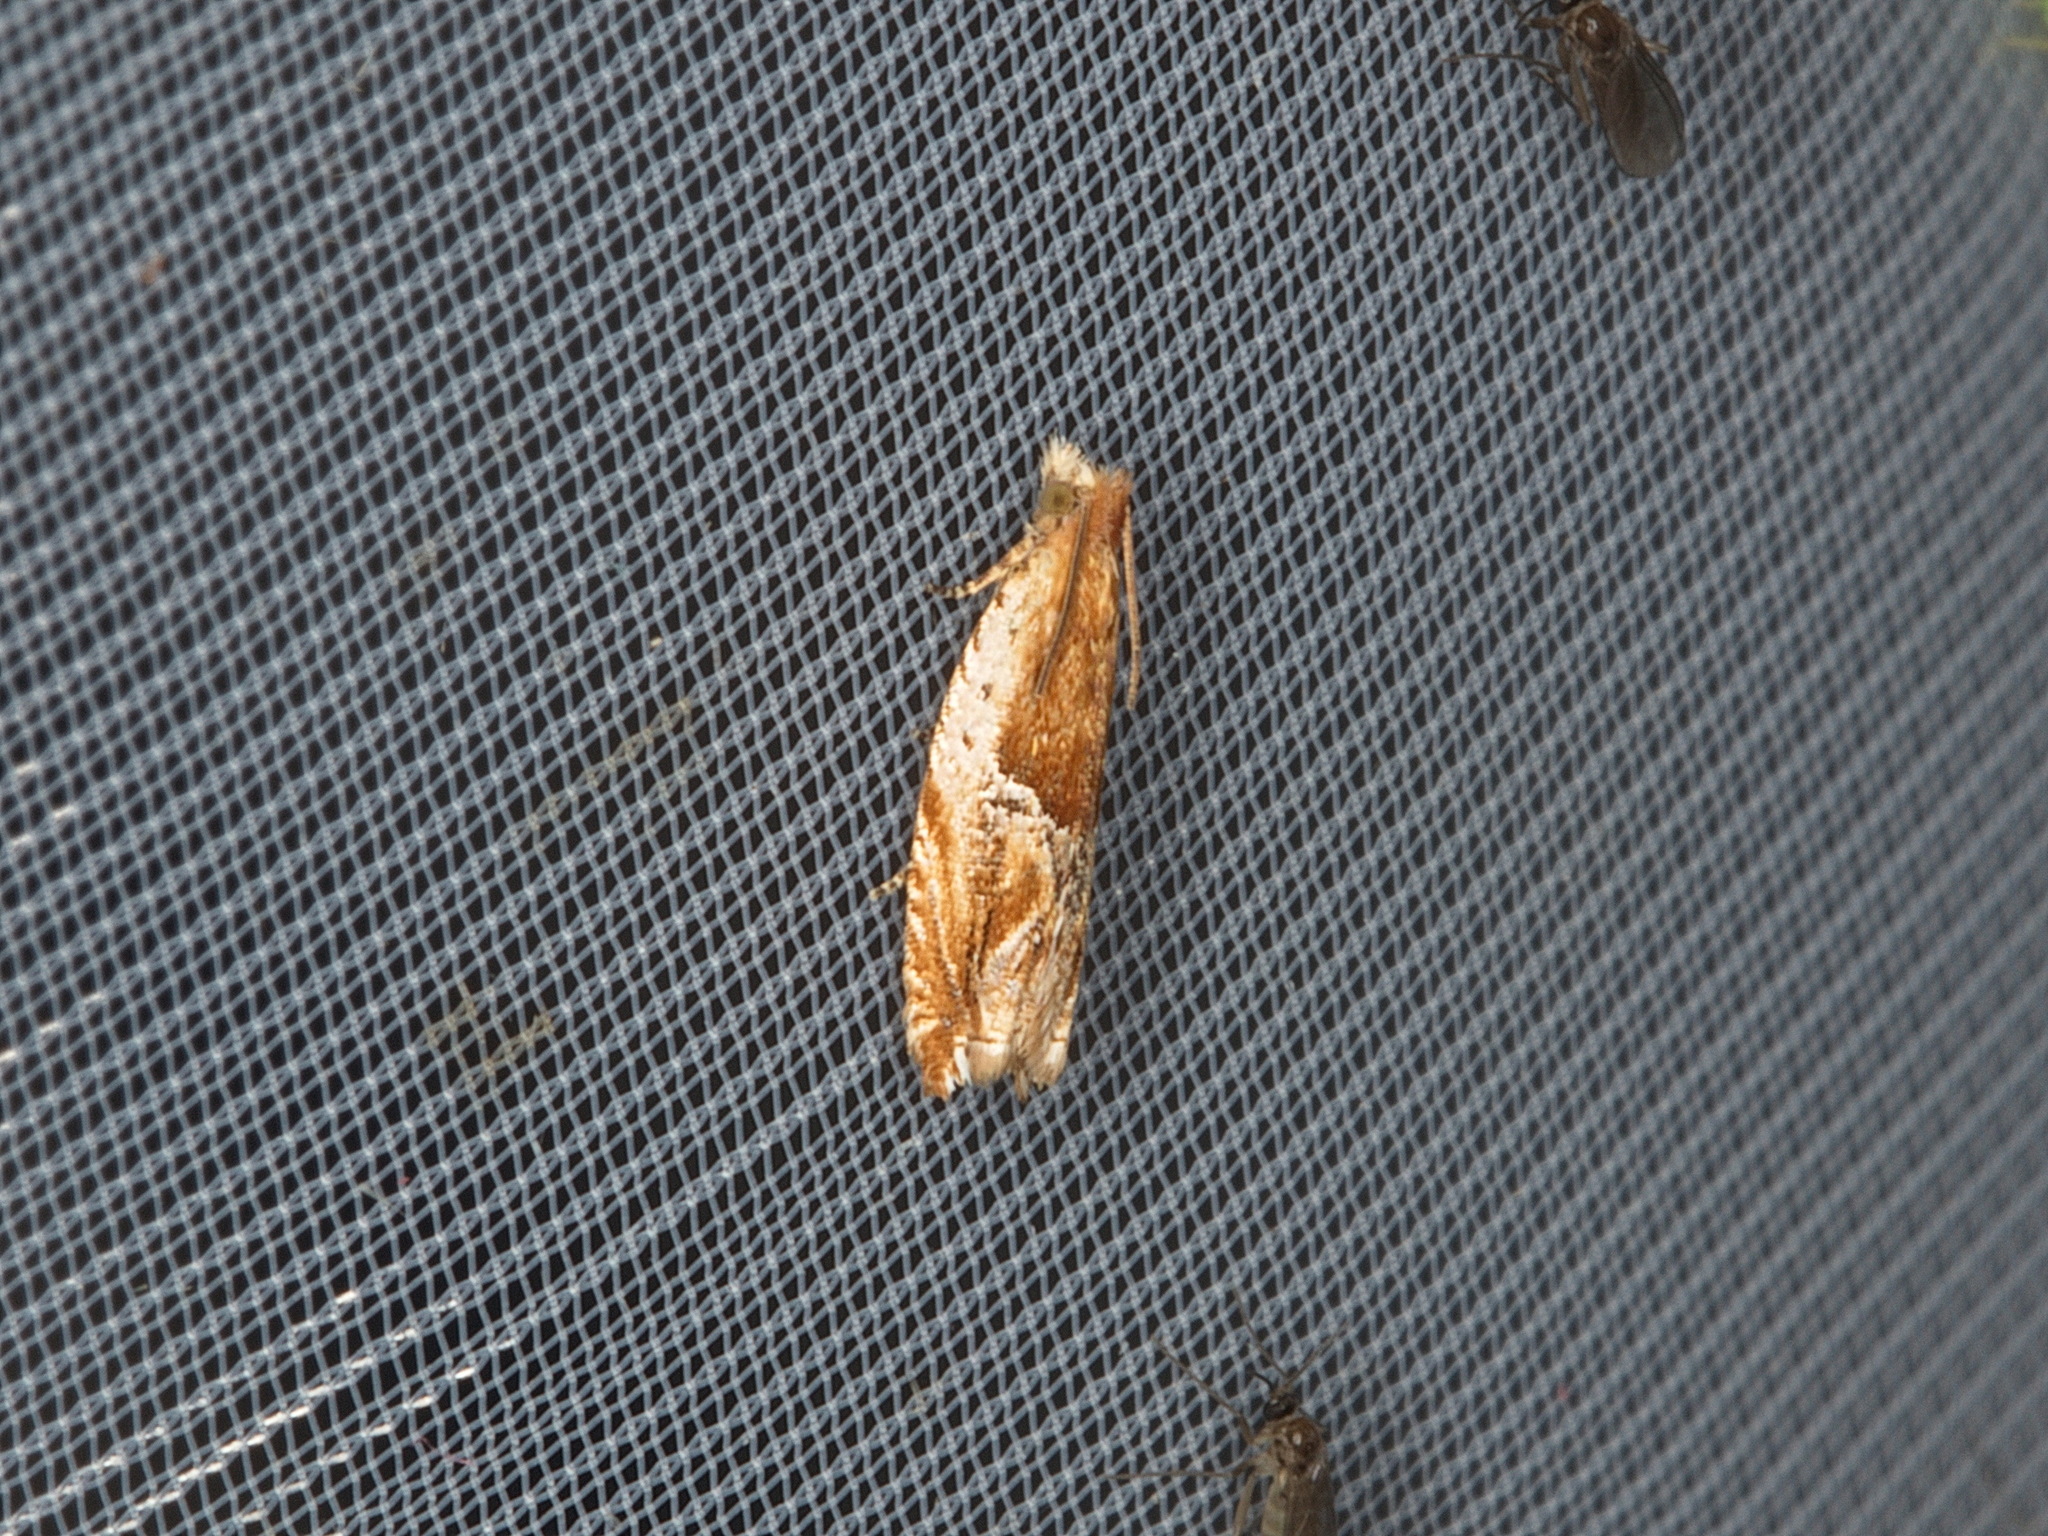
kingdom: Animalia
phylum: Arthropoda
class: Insecta
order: Lepidoptera
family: Tortricidae
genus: Ancylis
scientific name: Ancylis comptana
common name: Little roller
